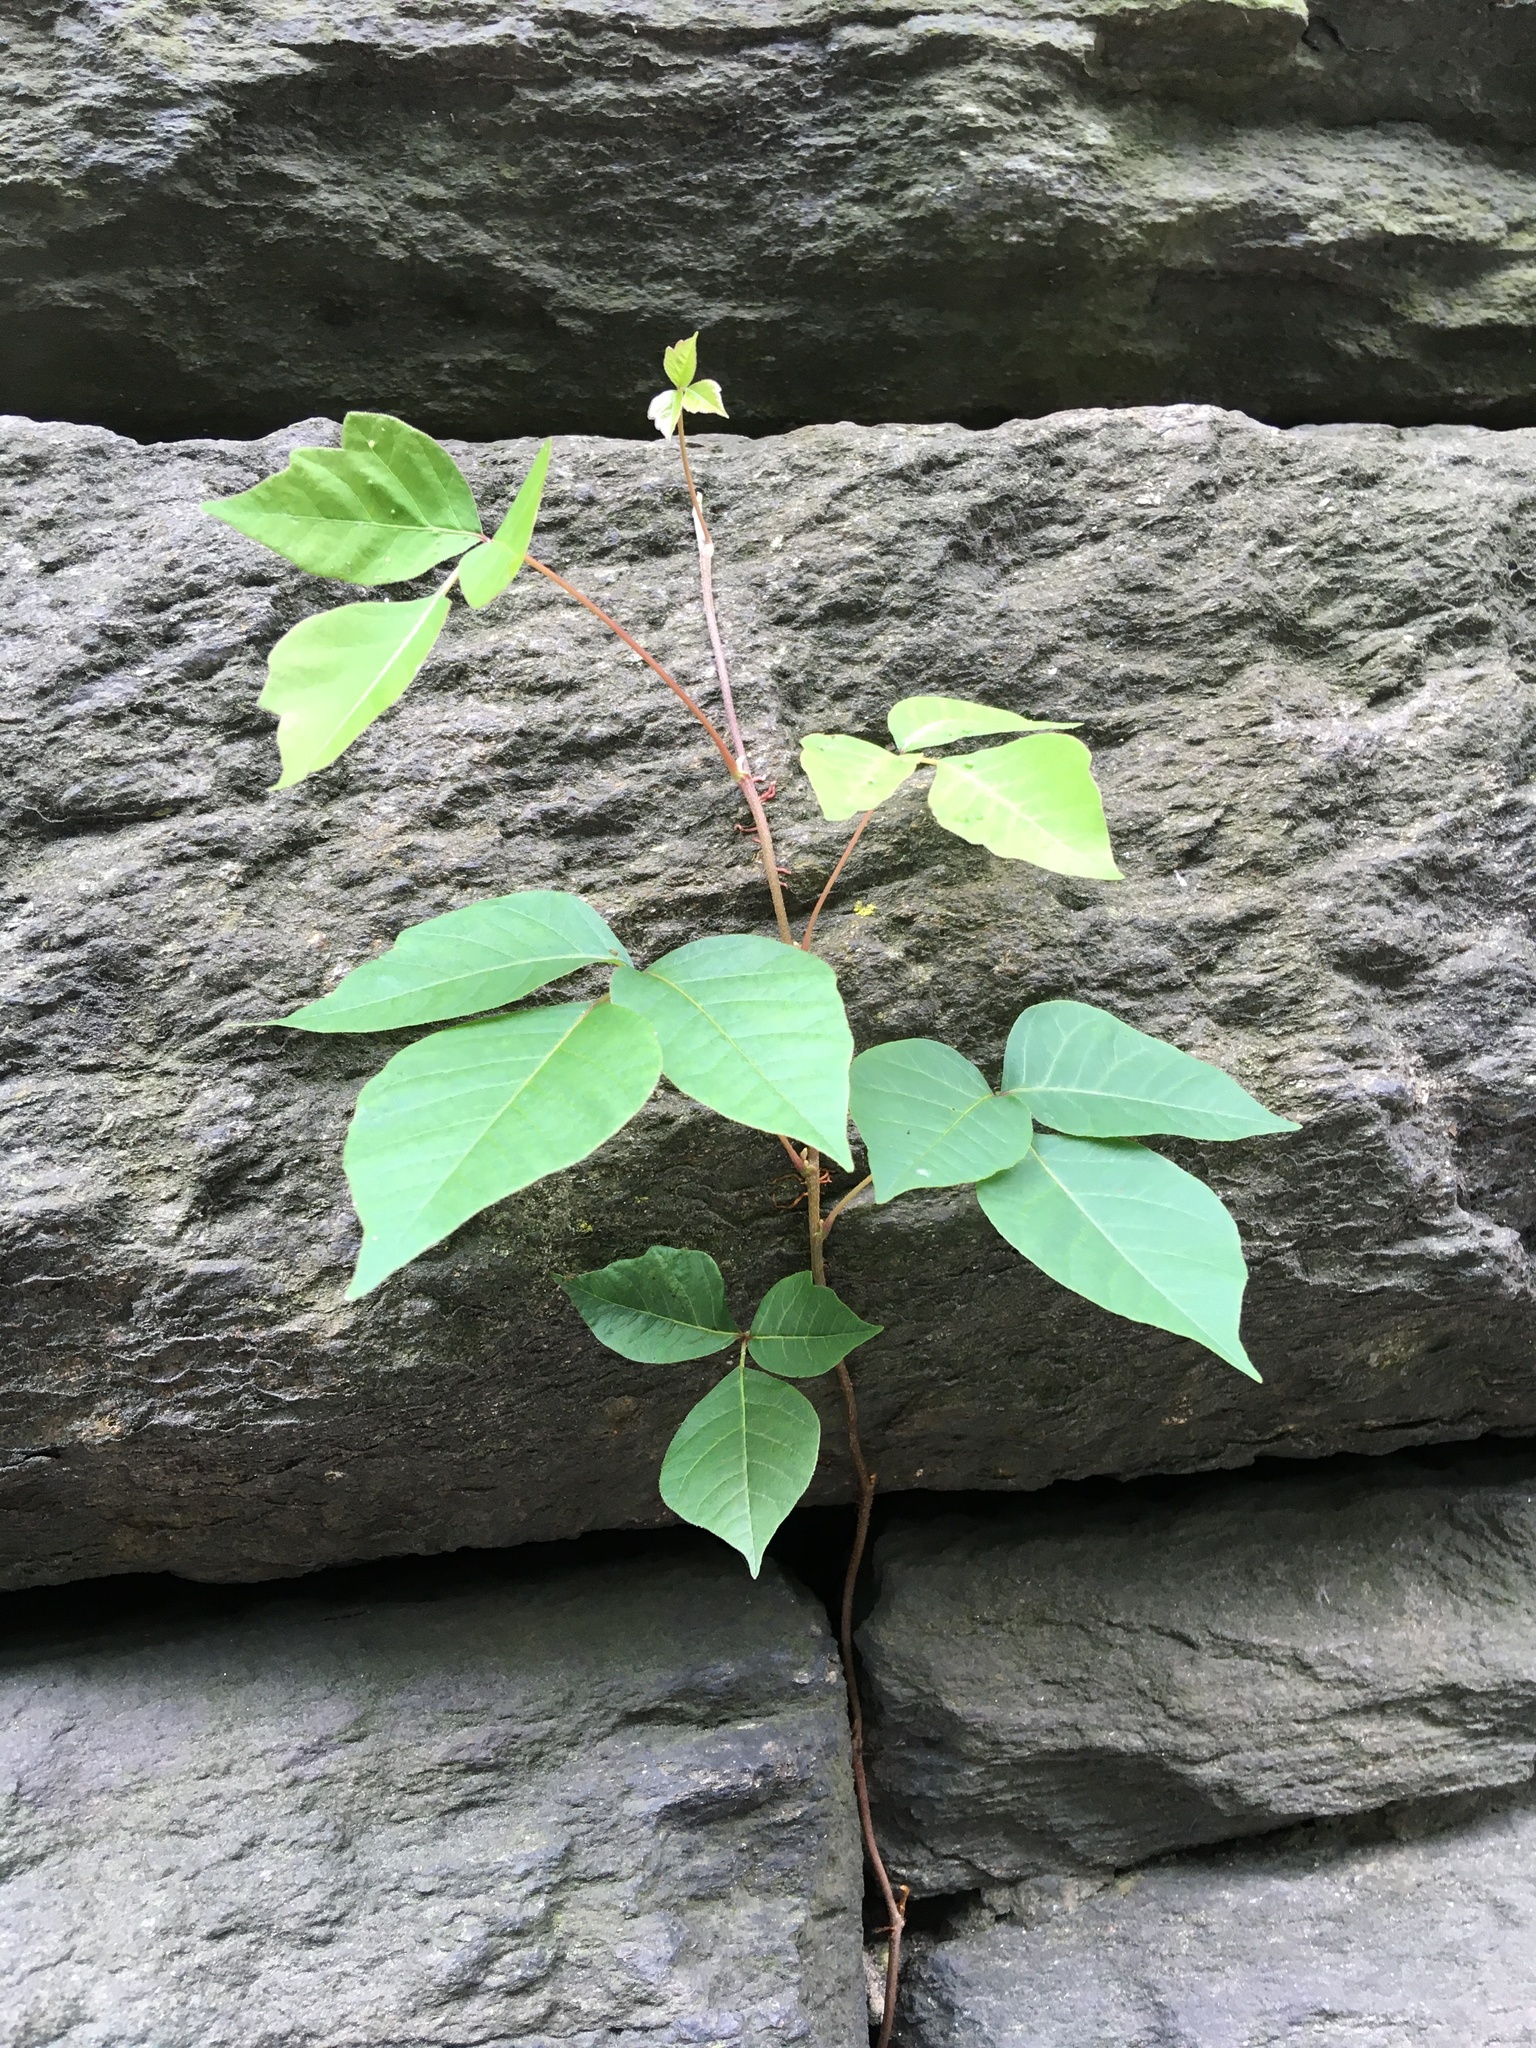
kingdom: Plantae
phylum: Tracheophyta
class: Magnoliopsida
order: Sapindales
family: Anacardiaceae
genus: Toxicodendron
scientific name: Toxicodendron radicans
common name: Poison ivy
